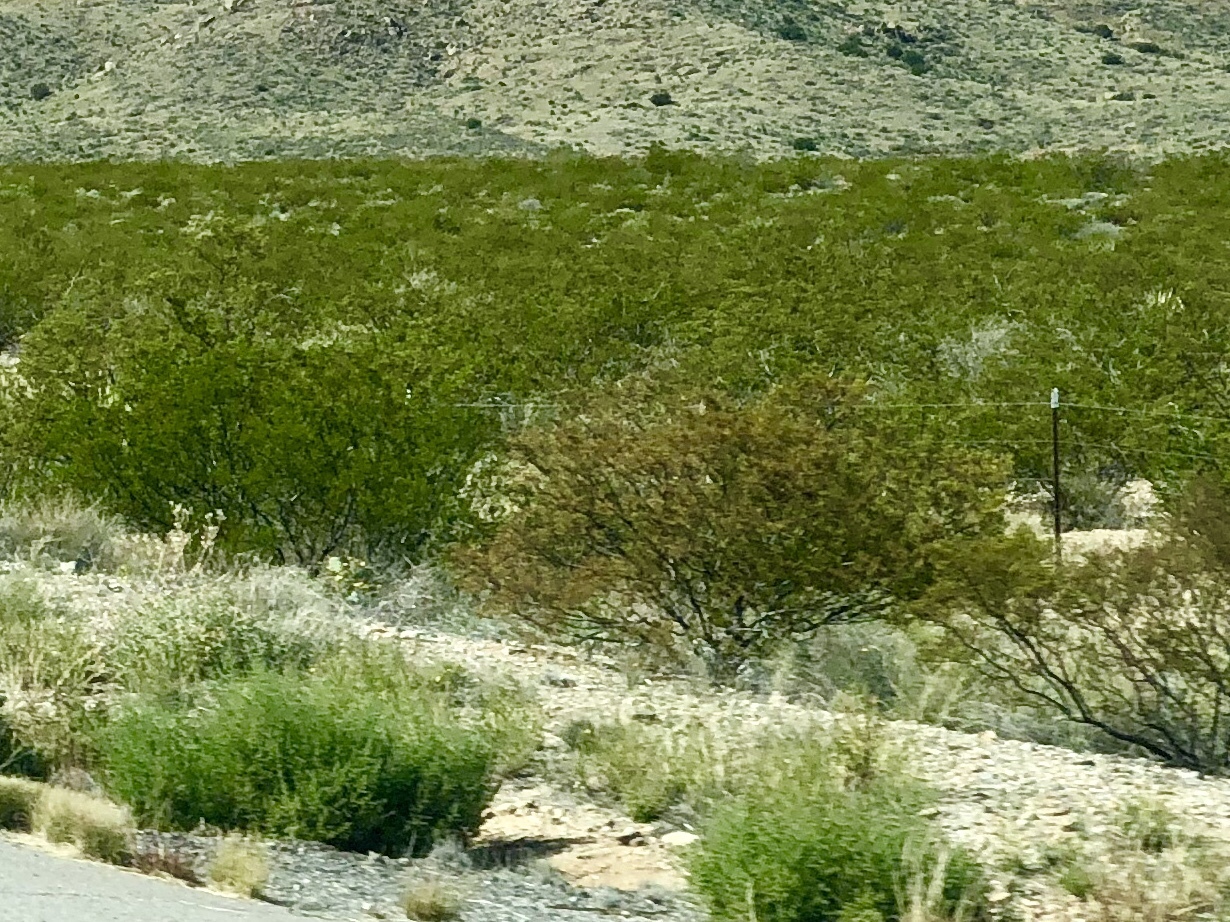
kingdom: Plantae
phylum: Tracheophyta
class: Magnoliopsida
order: Zygophyllales
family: Zygophyllaceae
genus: Larrea
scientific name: Larrea tridentata
